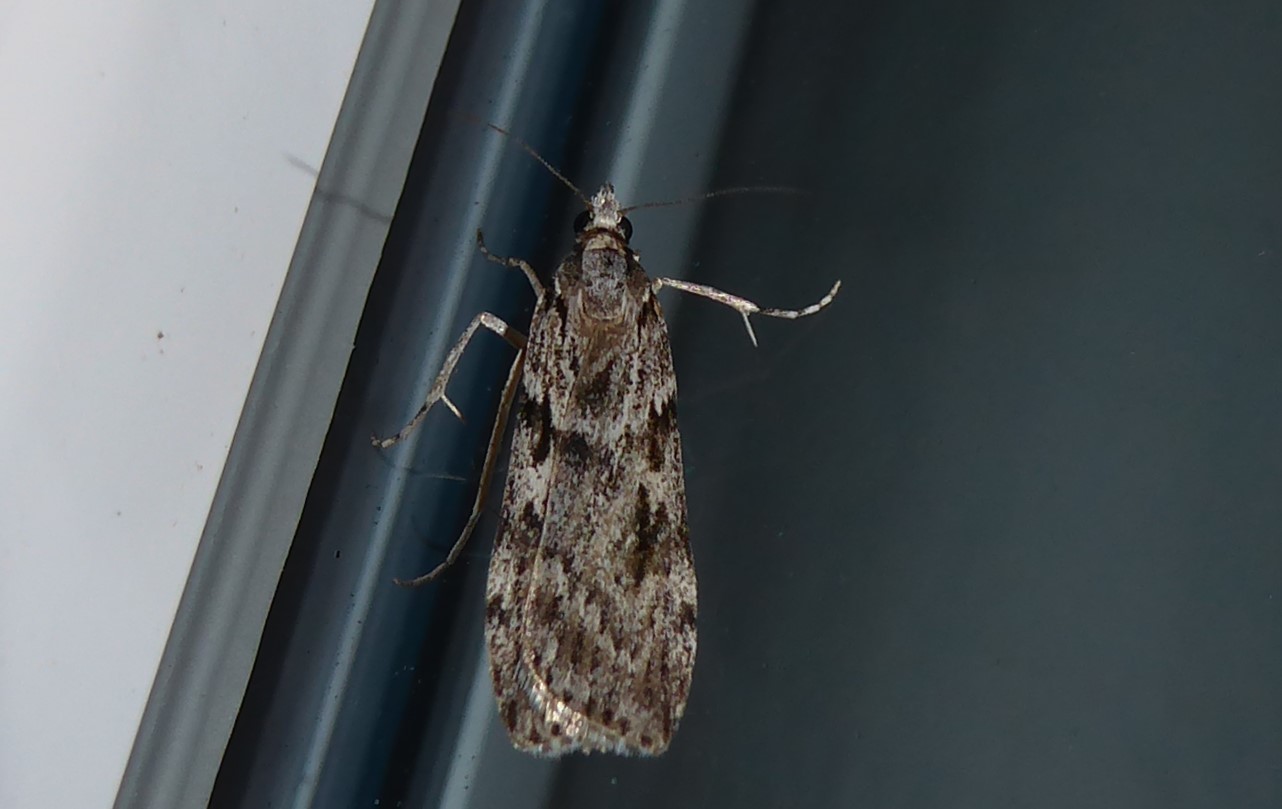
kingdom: Animalia
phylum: Arthropoda
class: Insecta
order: Lepidoptera
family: Crambidae
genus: Scoparia
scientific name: Scoparia halopis
